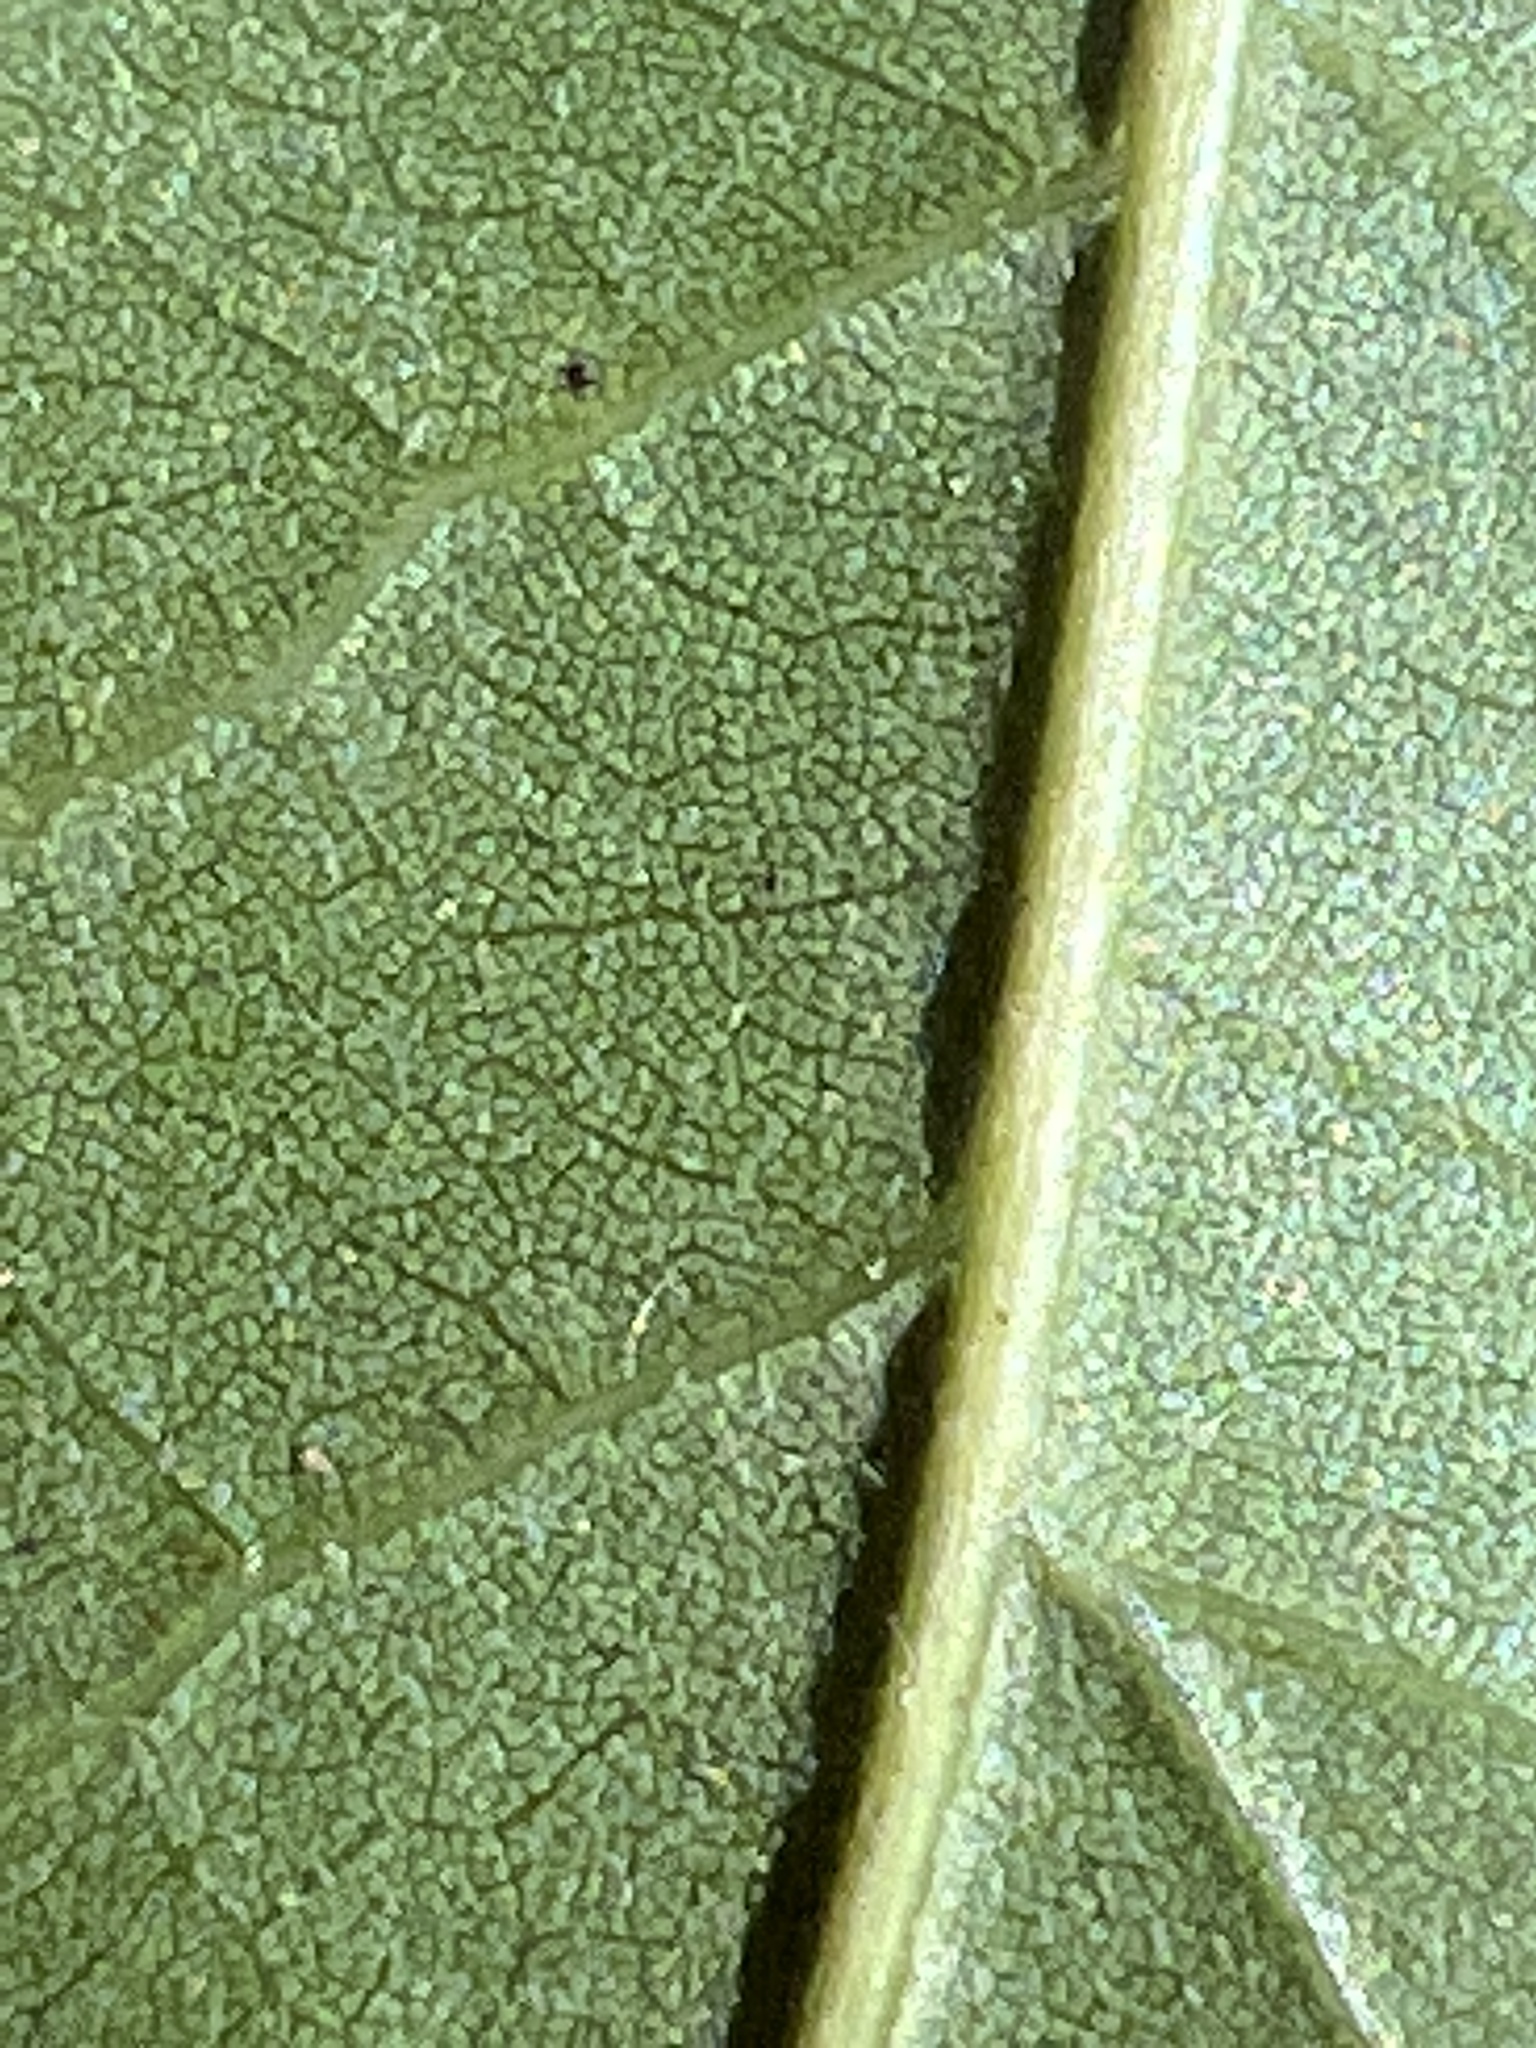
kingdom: Plantae
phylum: Tracheophyta
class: Magnoliopsida
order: Fagales
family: Fagaceae
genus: Quercus
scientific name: Quercus virginiana
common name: Southern live oak
